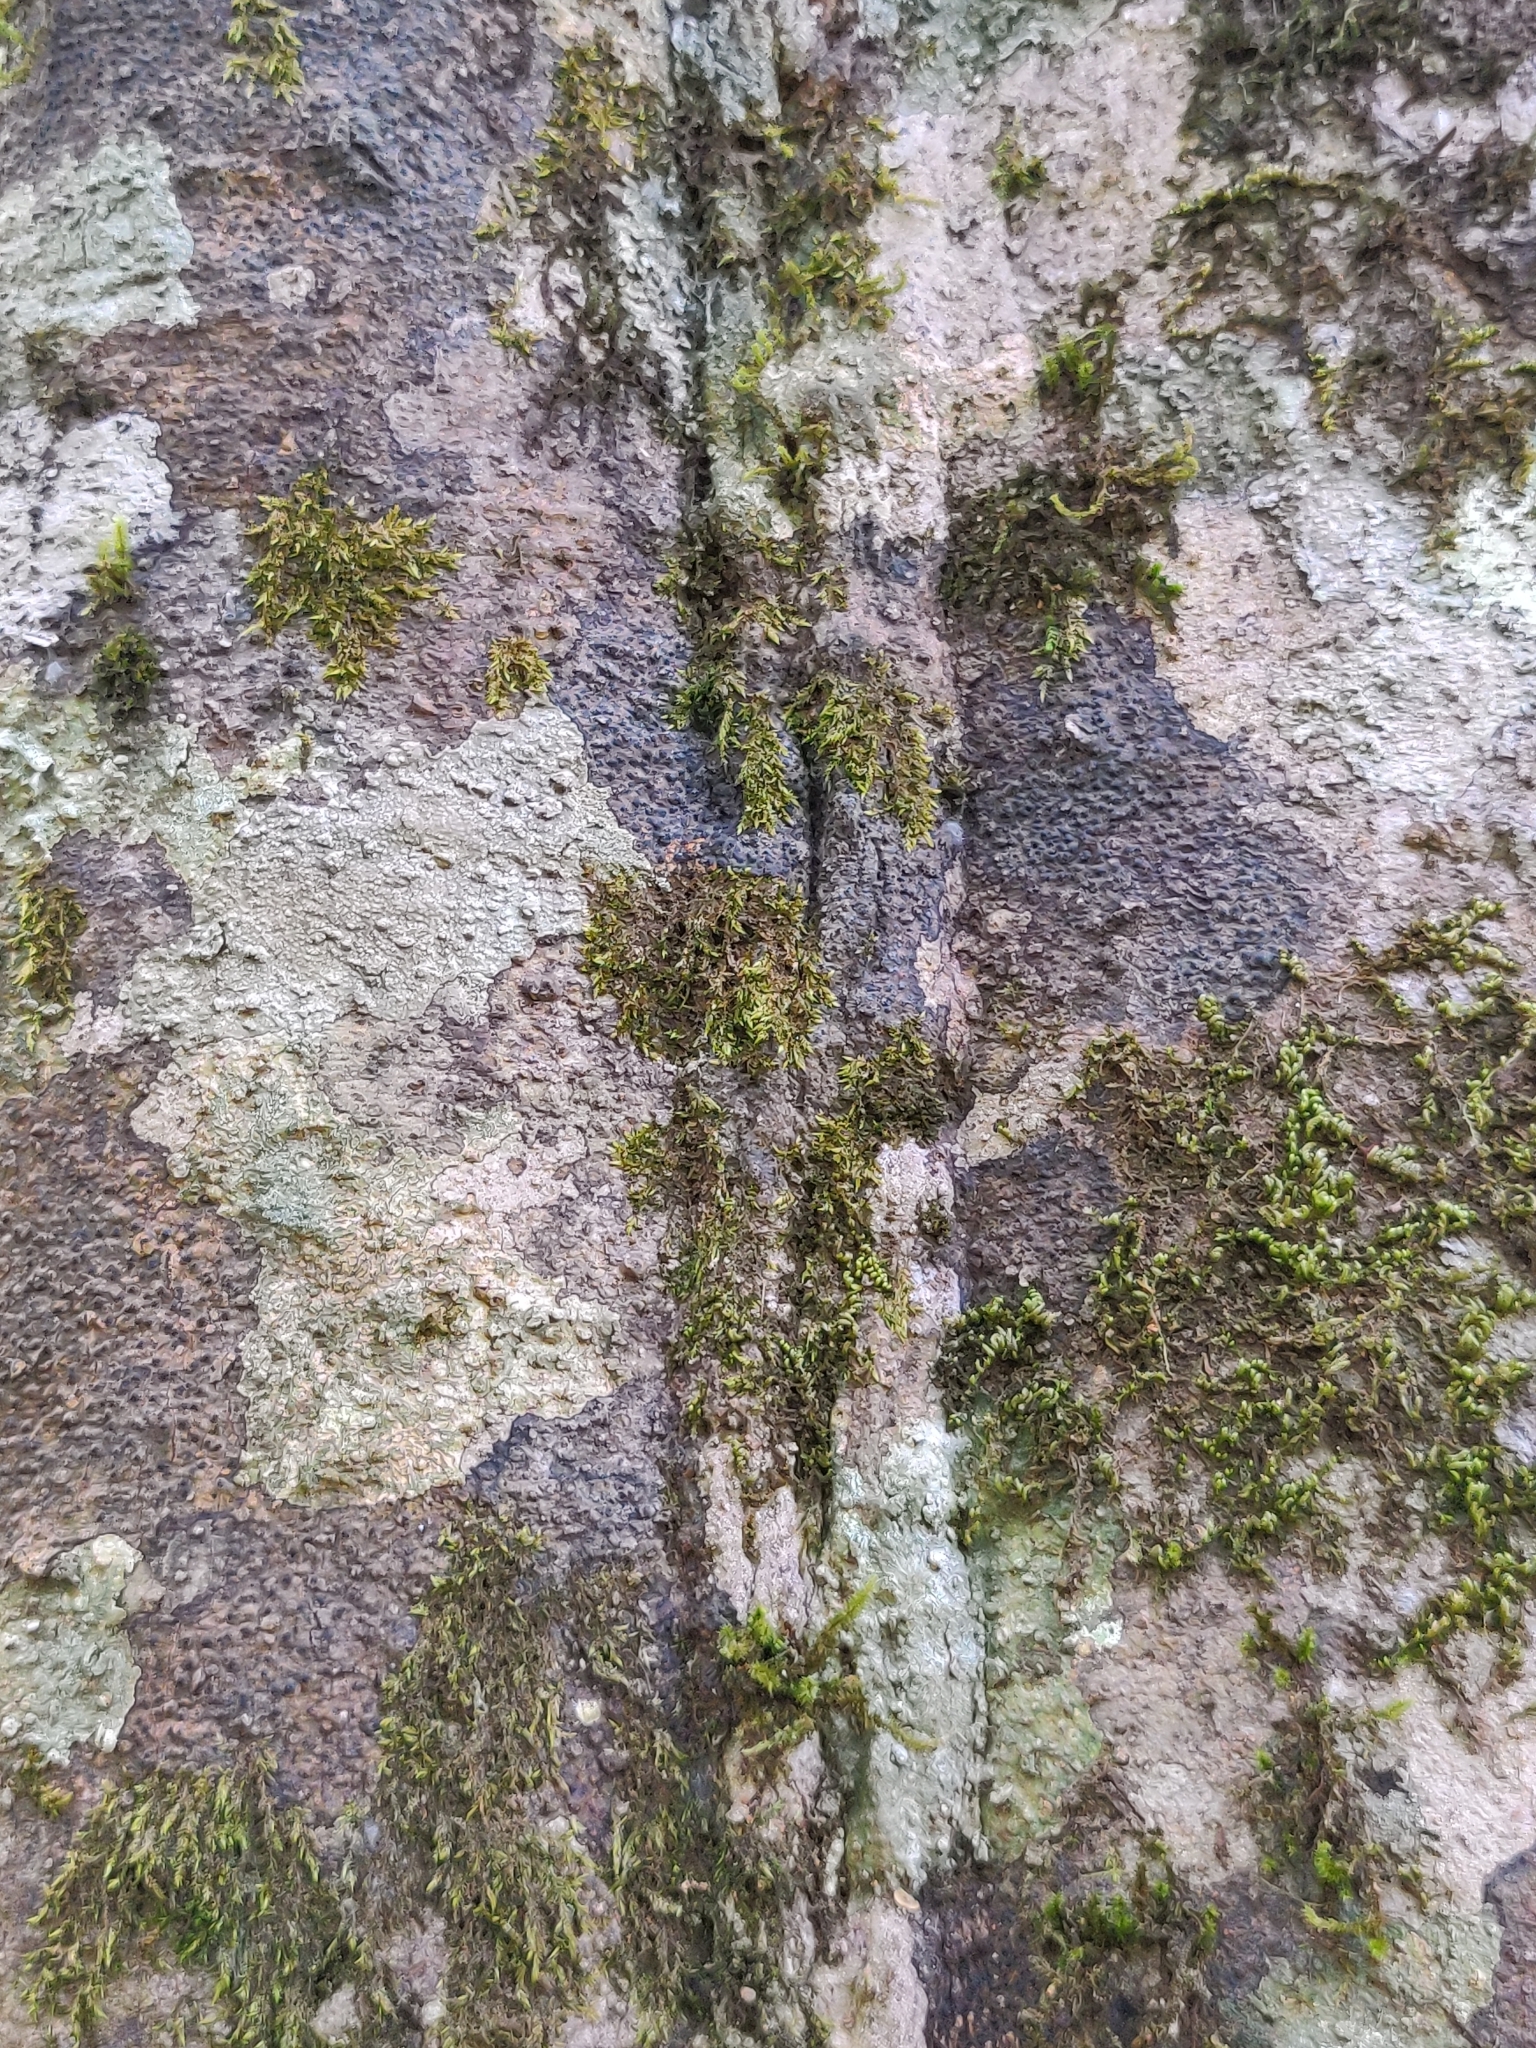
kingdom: Plantae
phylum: Tracheophyta
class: Magnoliopsida
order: Malvales
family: Dipterocarpaceae
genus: Vateria
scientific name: Vateria indica
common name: White dammar
